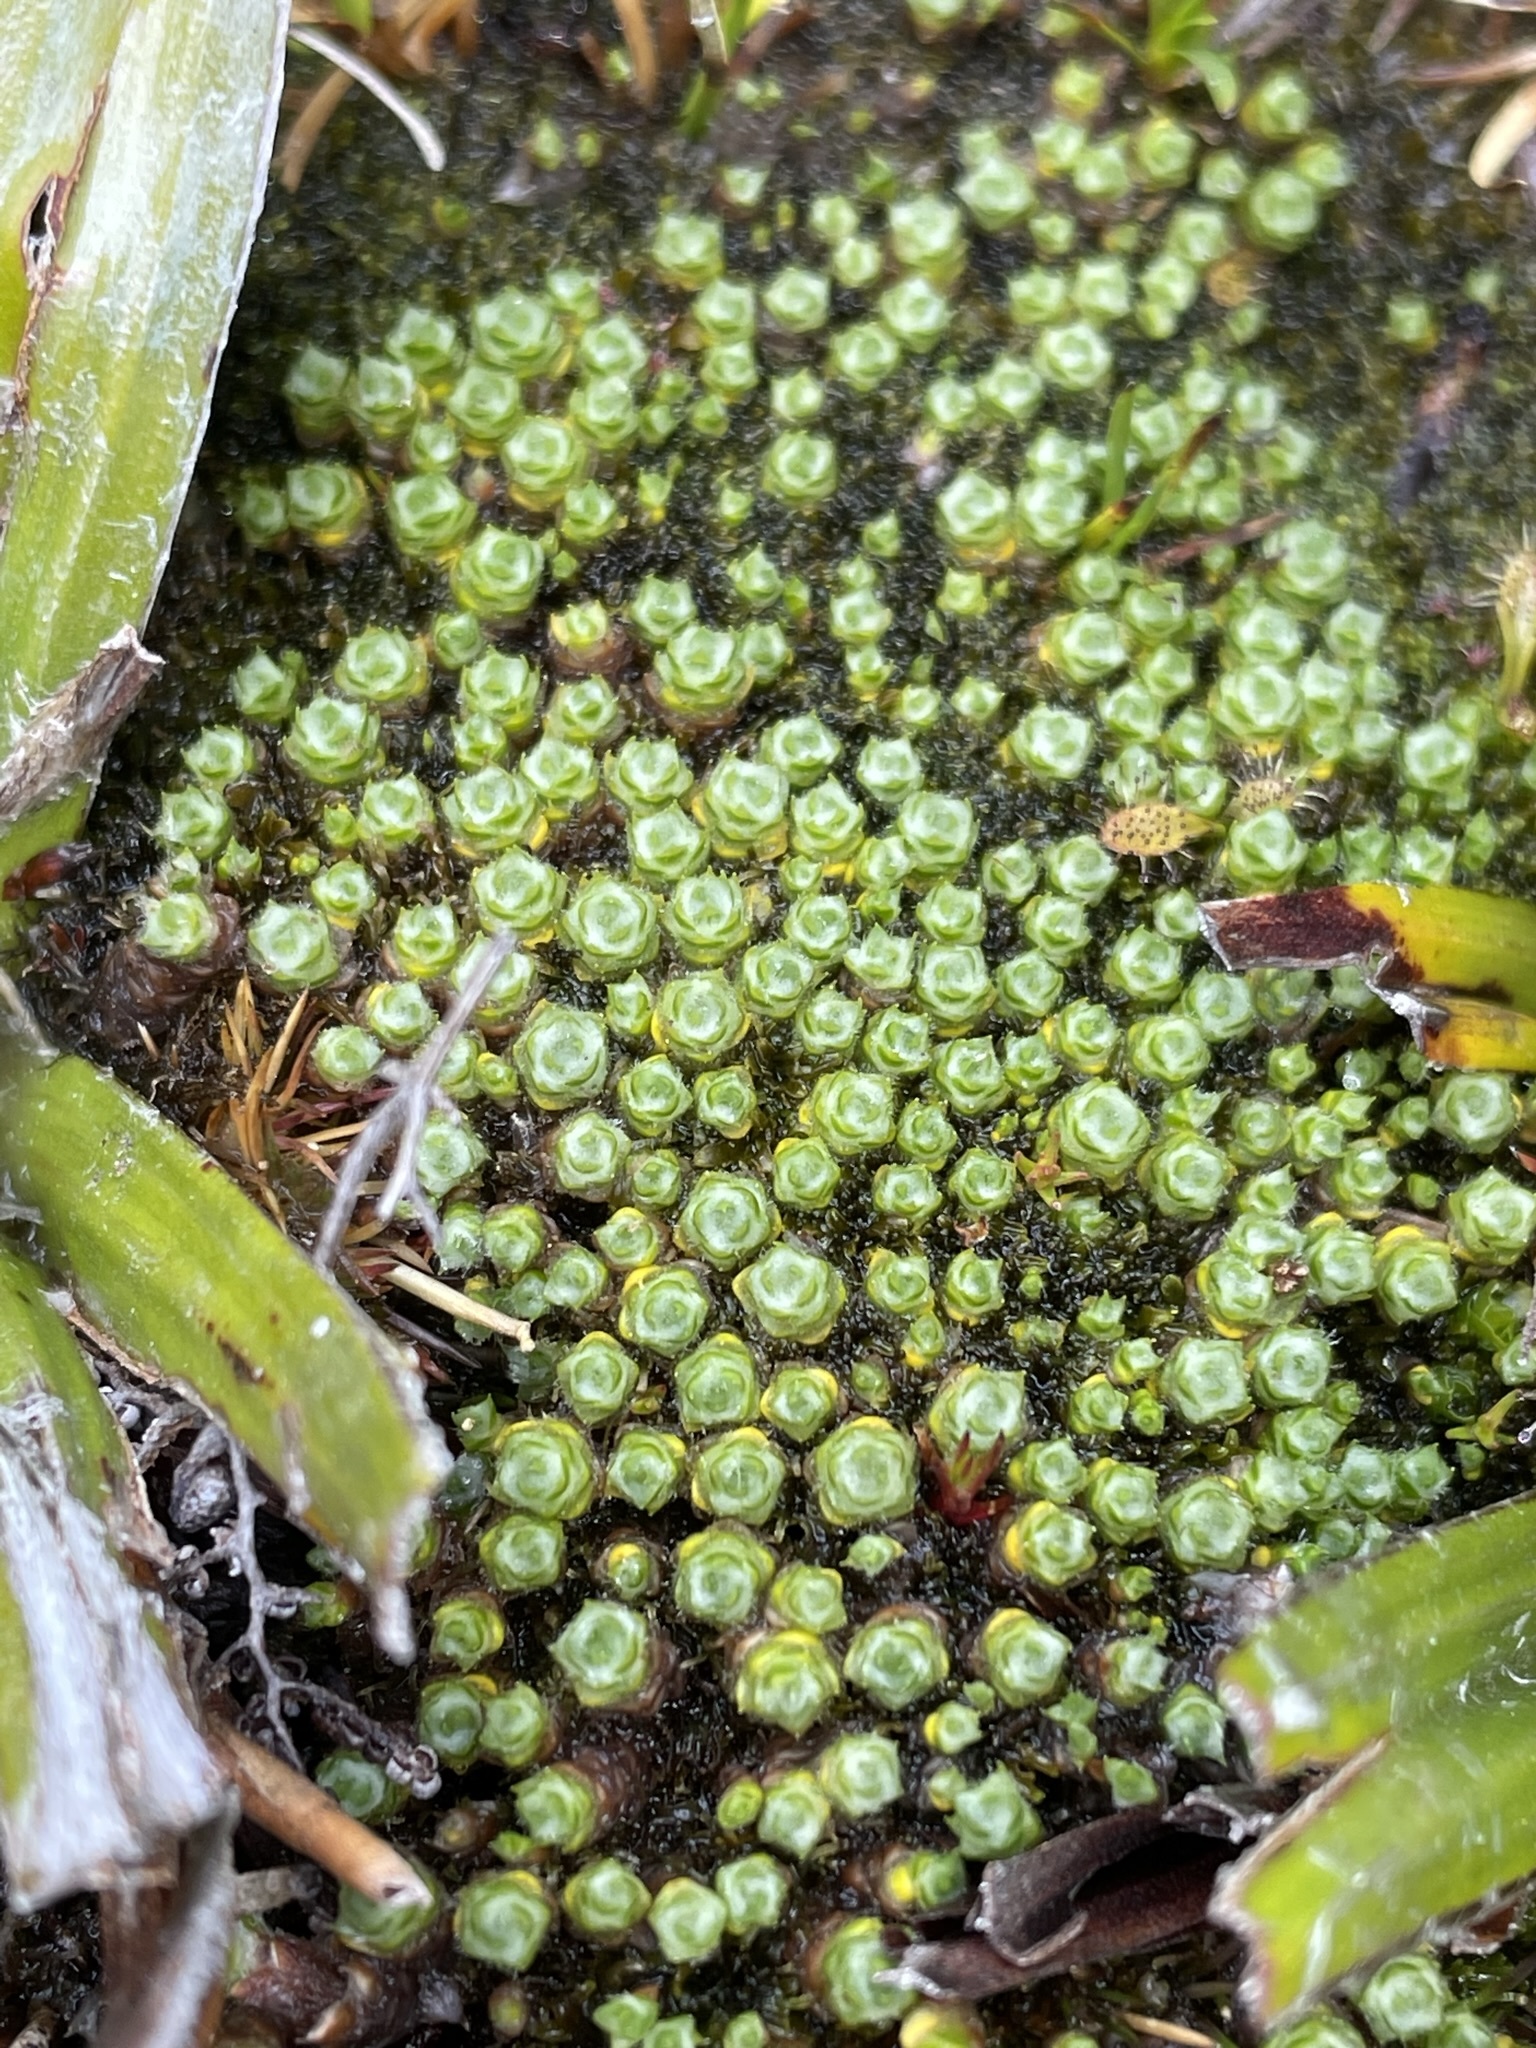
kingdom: Plantae
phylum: Tracheophyta
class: Magnoliopsida
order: Asterales
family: Asteraceae
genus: Pterygopappus
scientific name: Pterygopappus lawrencii
